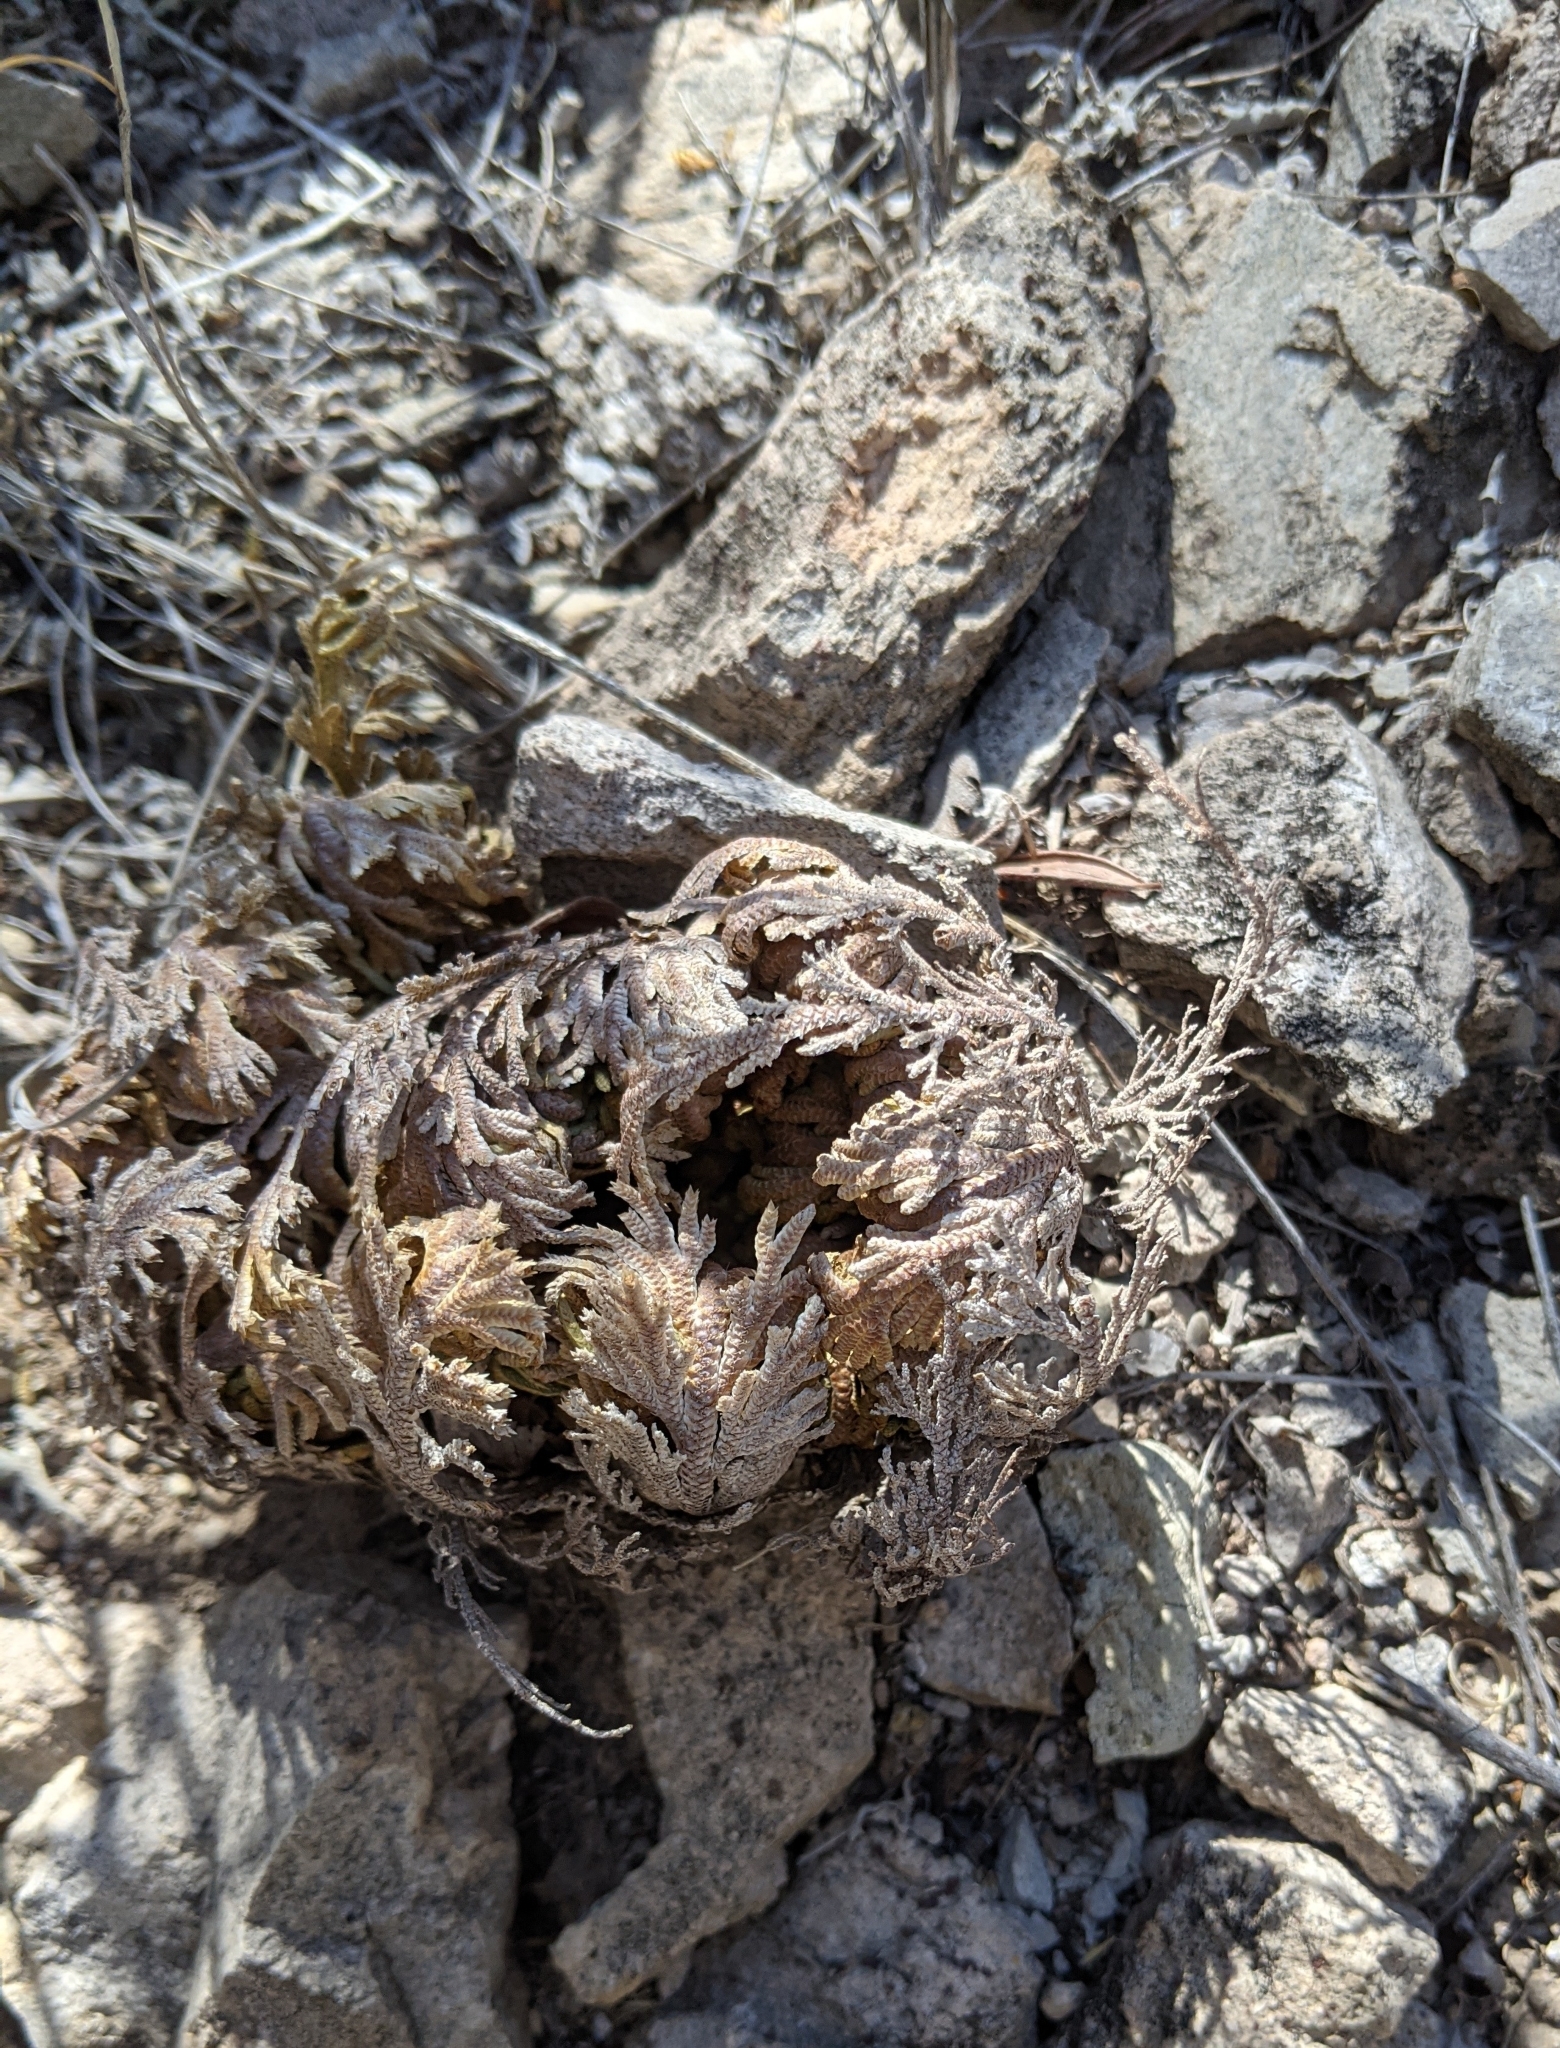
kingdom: Plantae
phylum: Tracheophyta
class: Lycopodiopsida
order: Selaginellales
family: Selaginellaceae
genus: Selaginella
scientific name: Selaginella lepidophylla
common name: Rose-of-jericho
